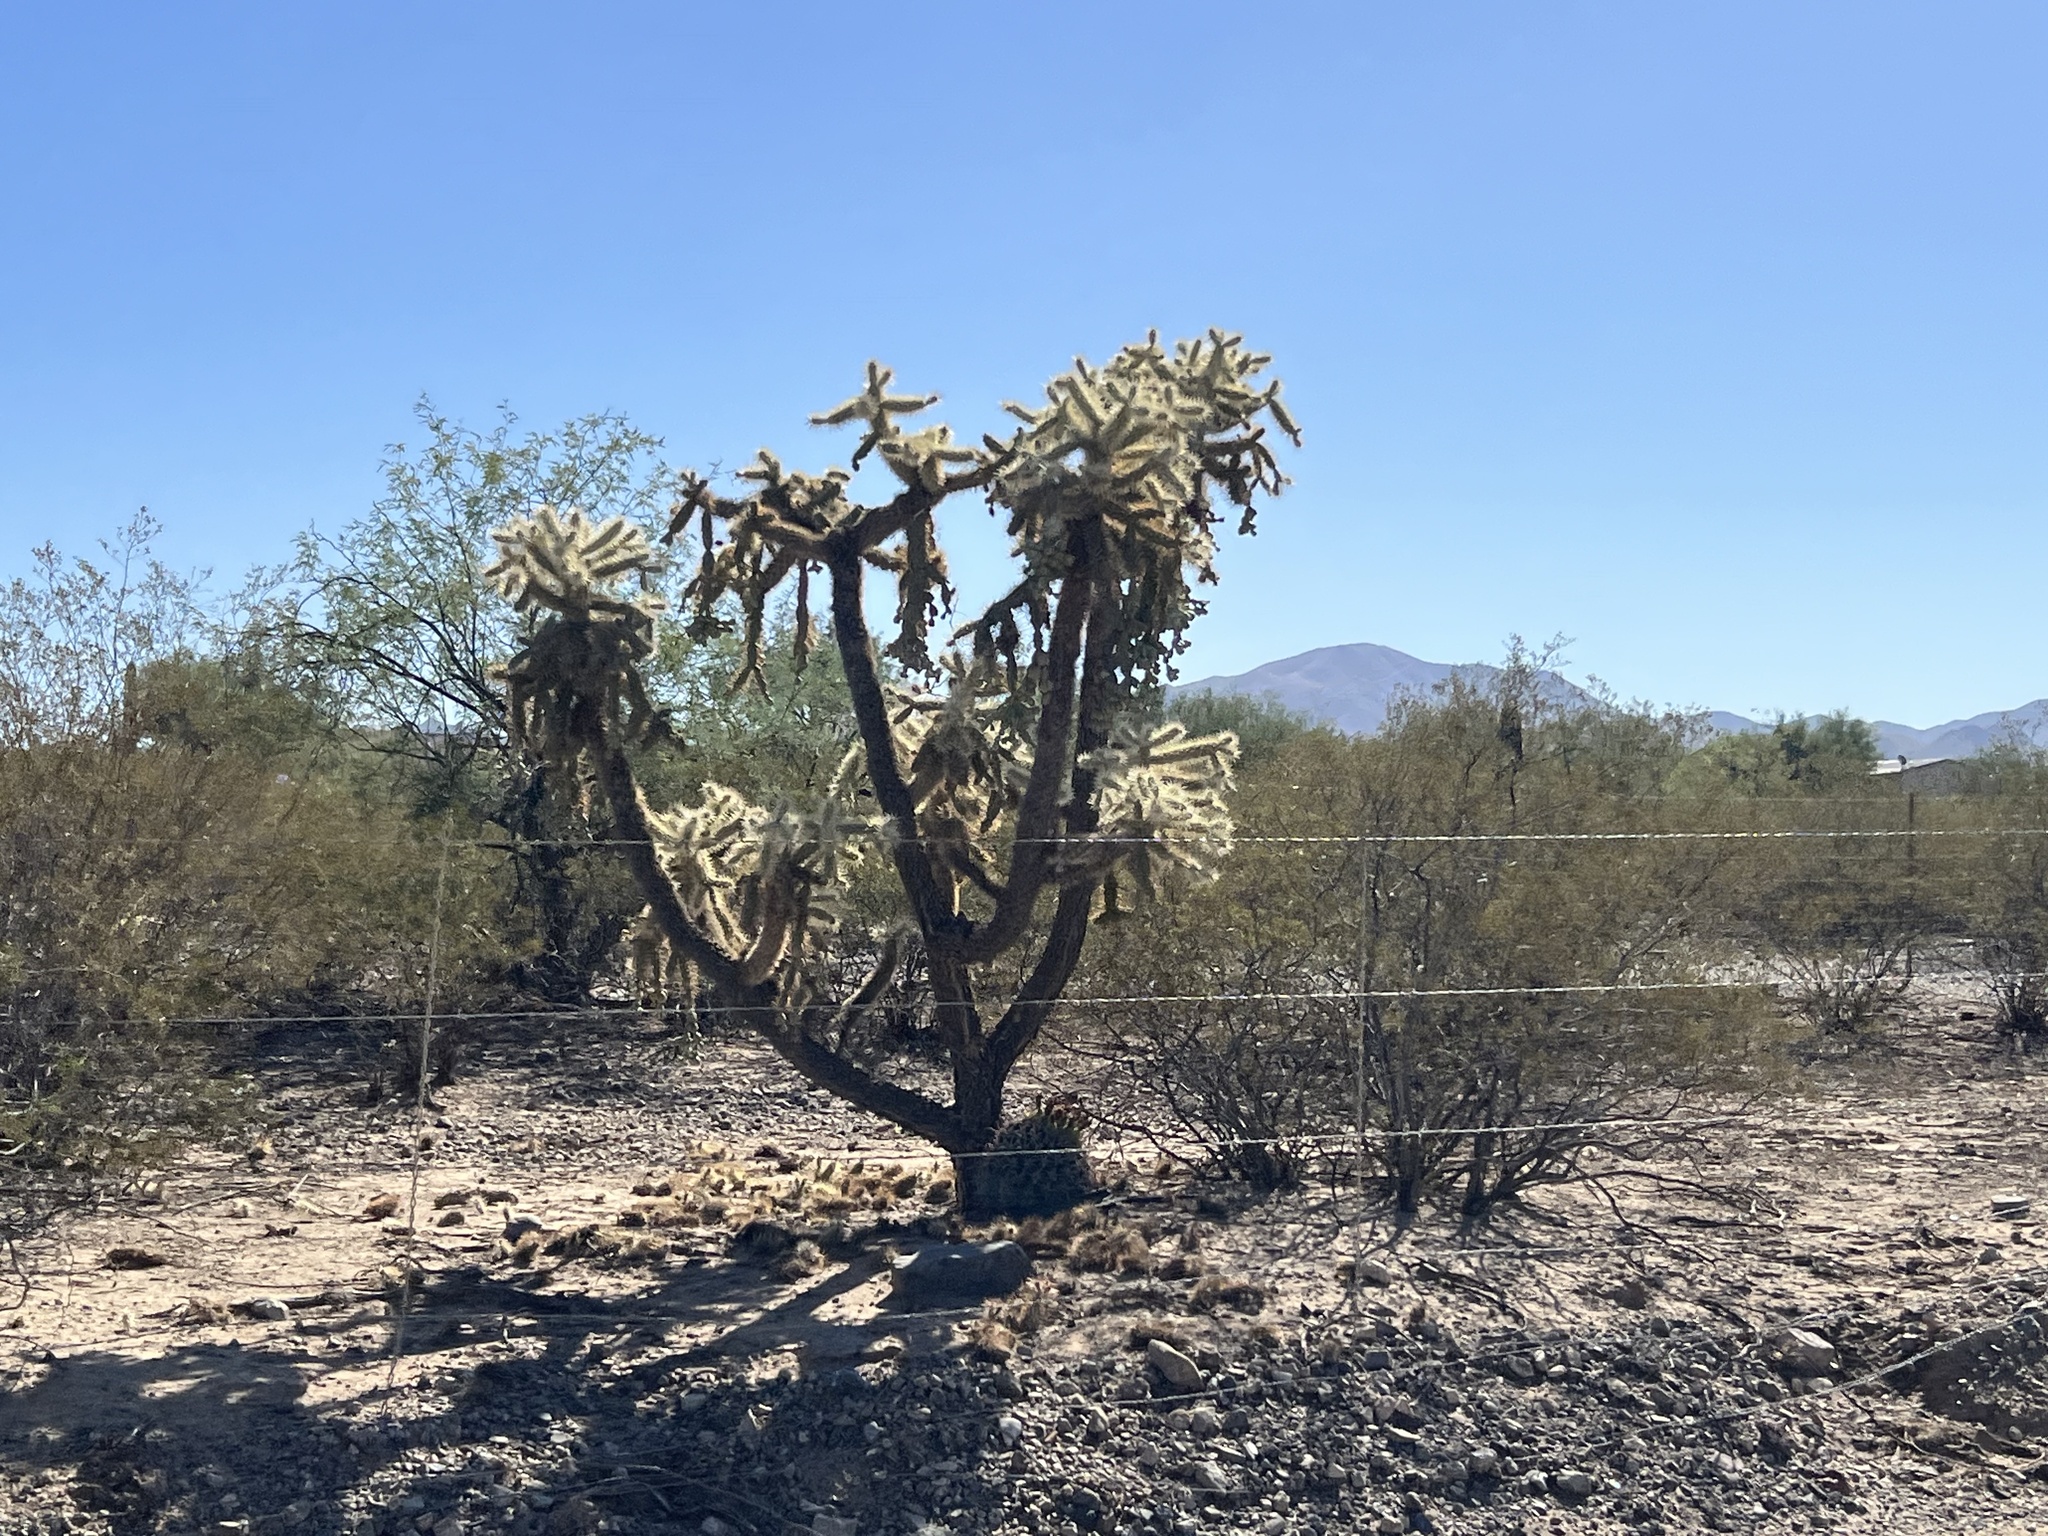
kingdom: Plantae
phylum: Tracheophyta
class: Magnoliopsida
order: Caryophyllales
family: Cactaceae
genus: Cylindropuntia
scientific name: Cylindropuntia fulgida
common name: Jumping cholla
